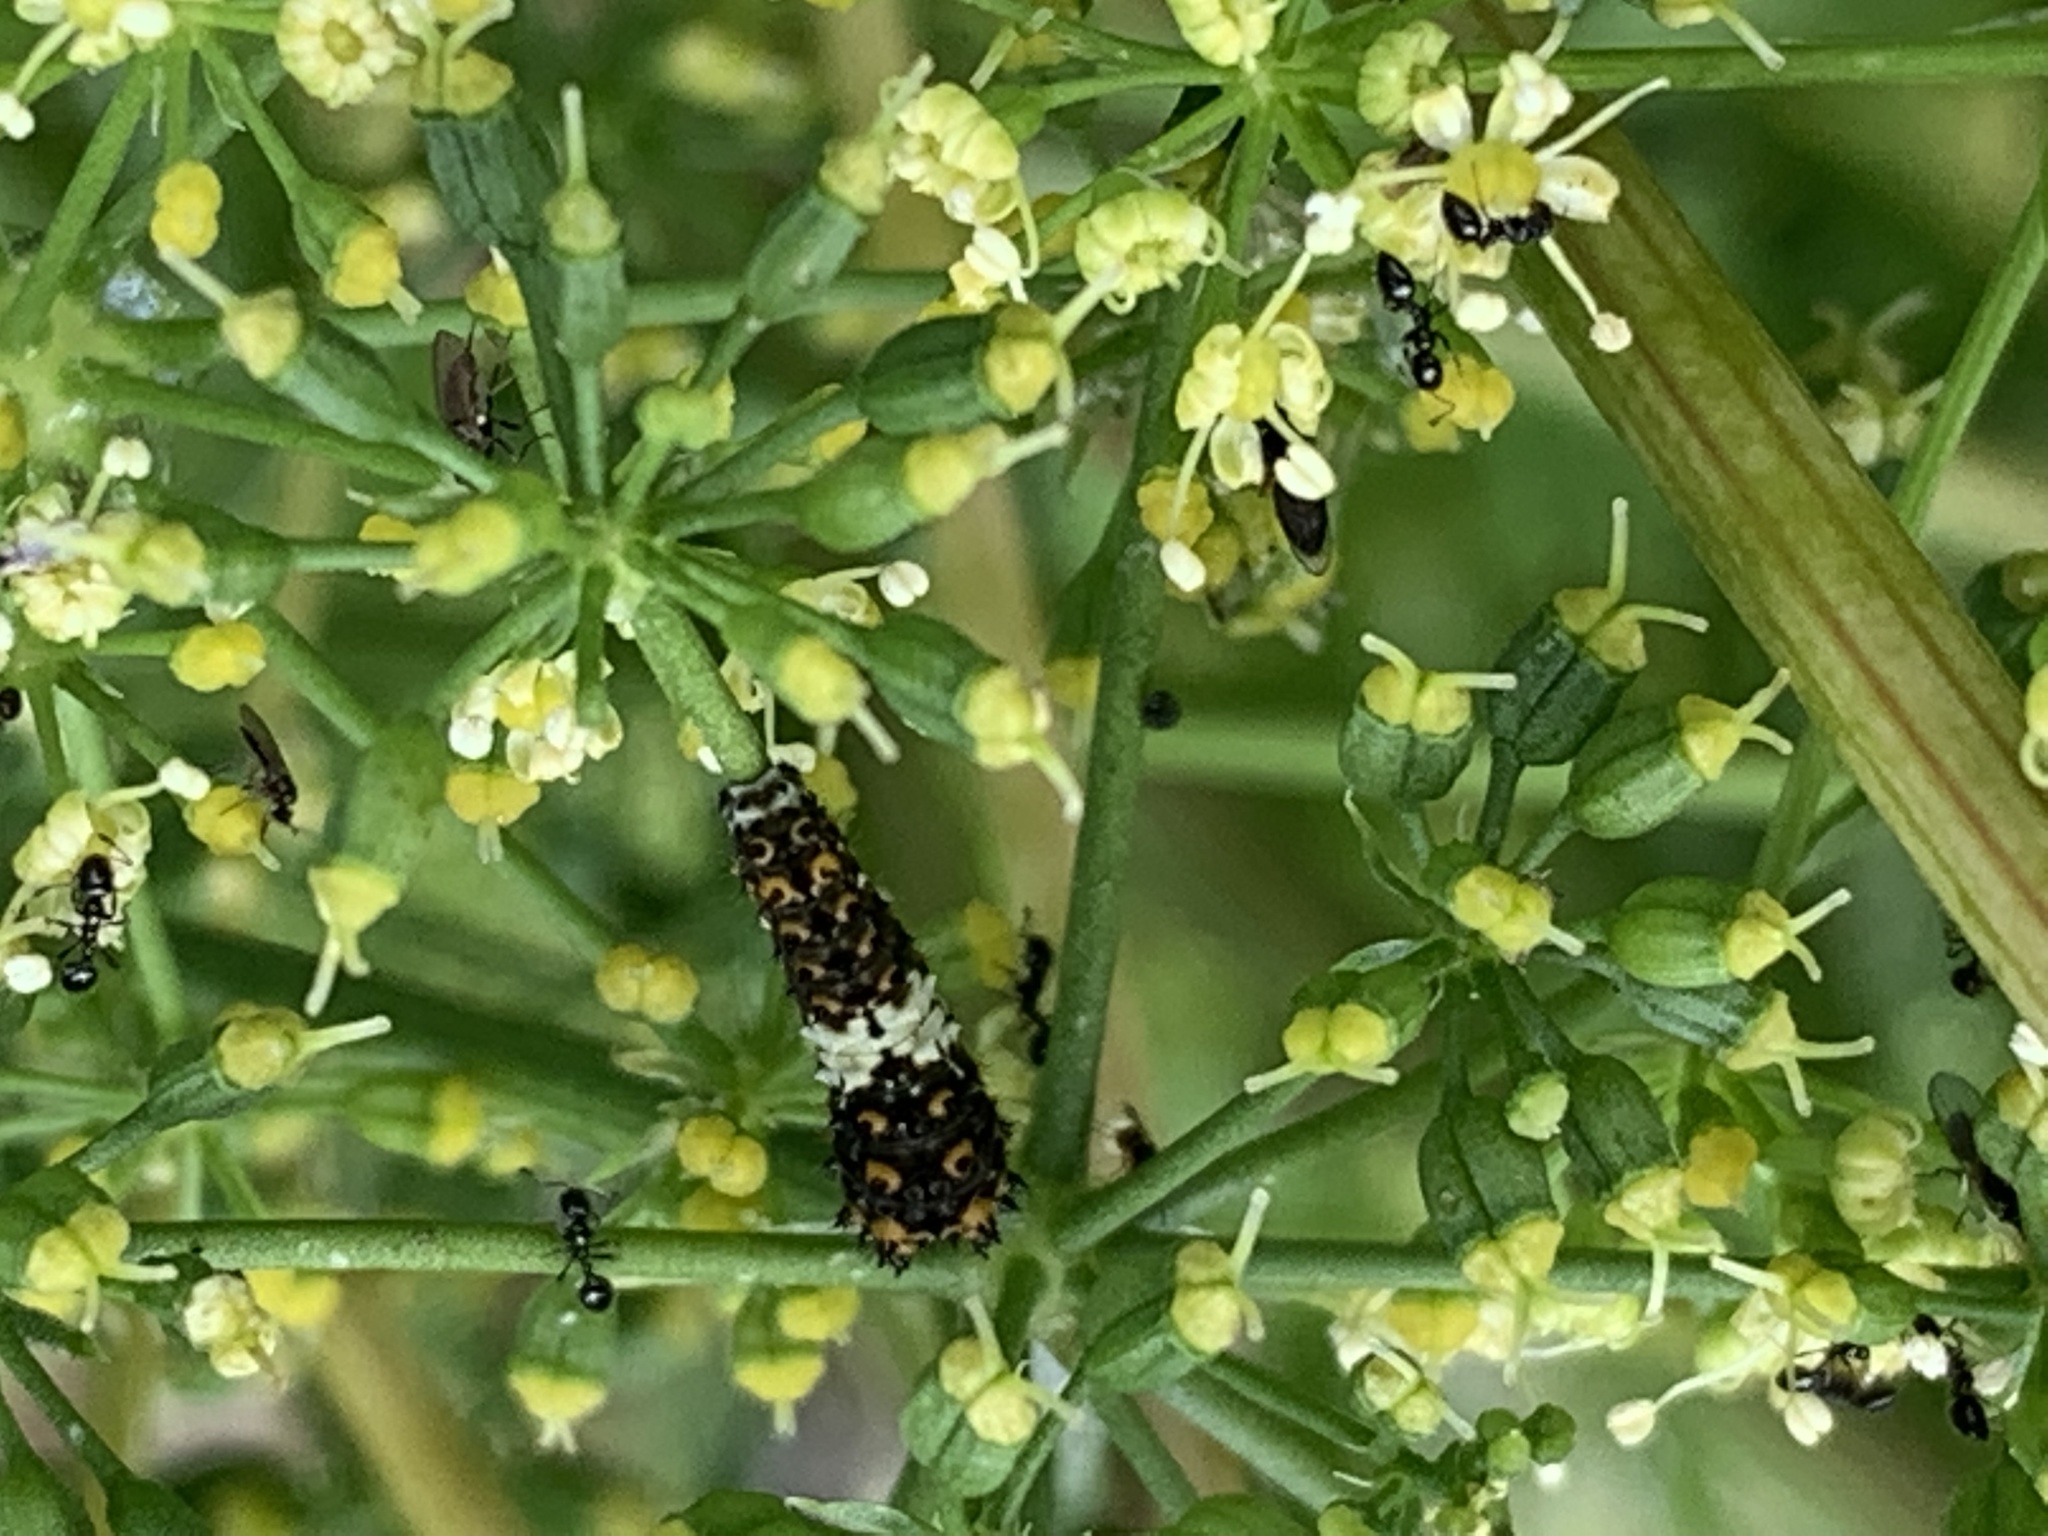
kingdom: Animalia
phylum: Arthropoda
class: Insecta
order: Lepidoptera
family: Papilionidae
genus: Papilio
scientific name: Papilio polyxenes
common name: Black swallowtail
